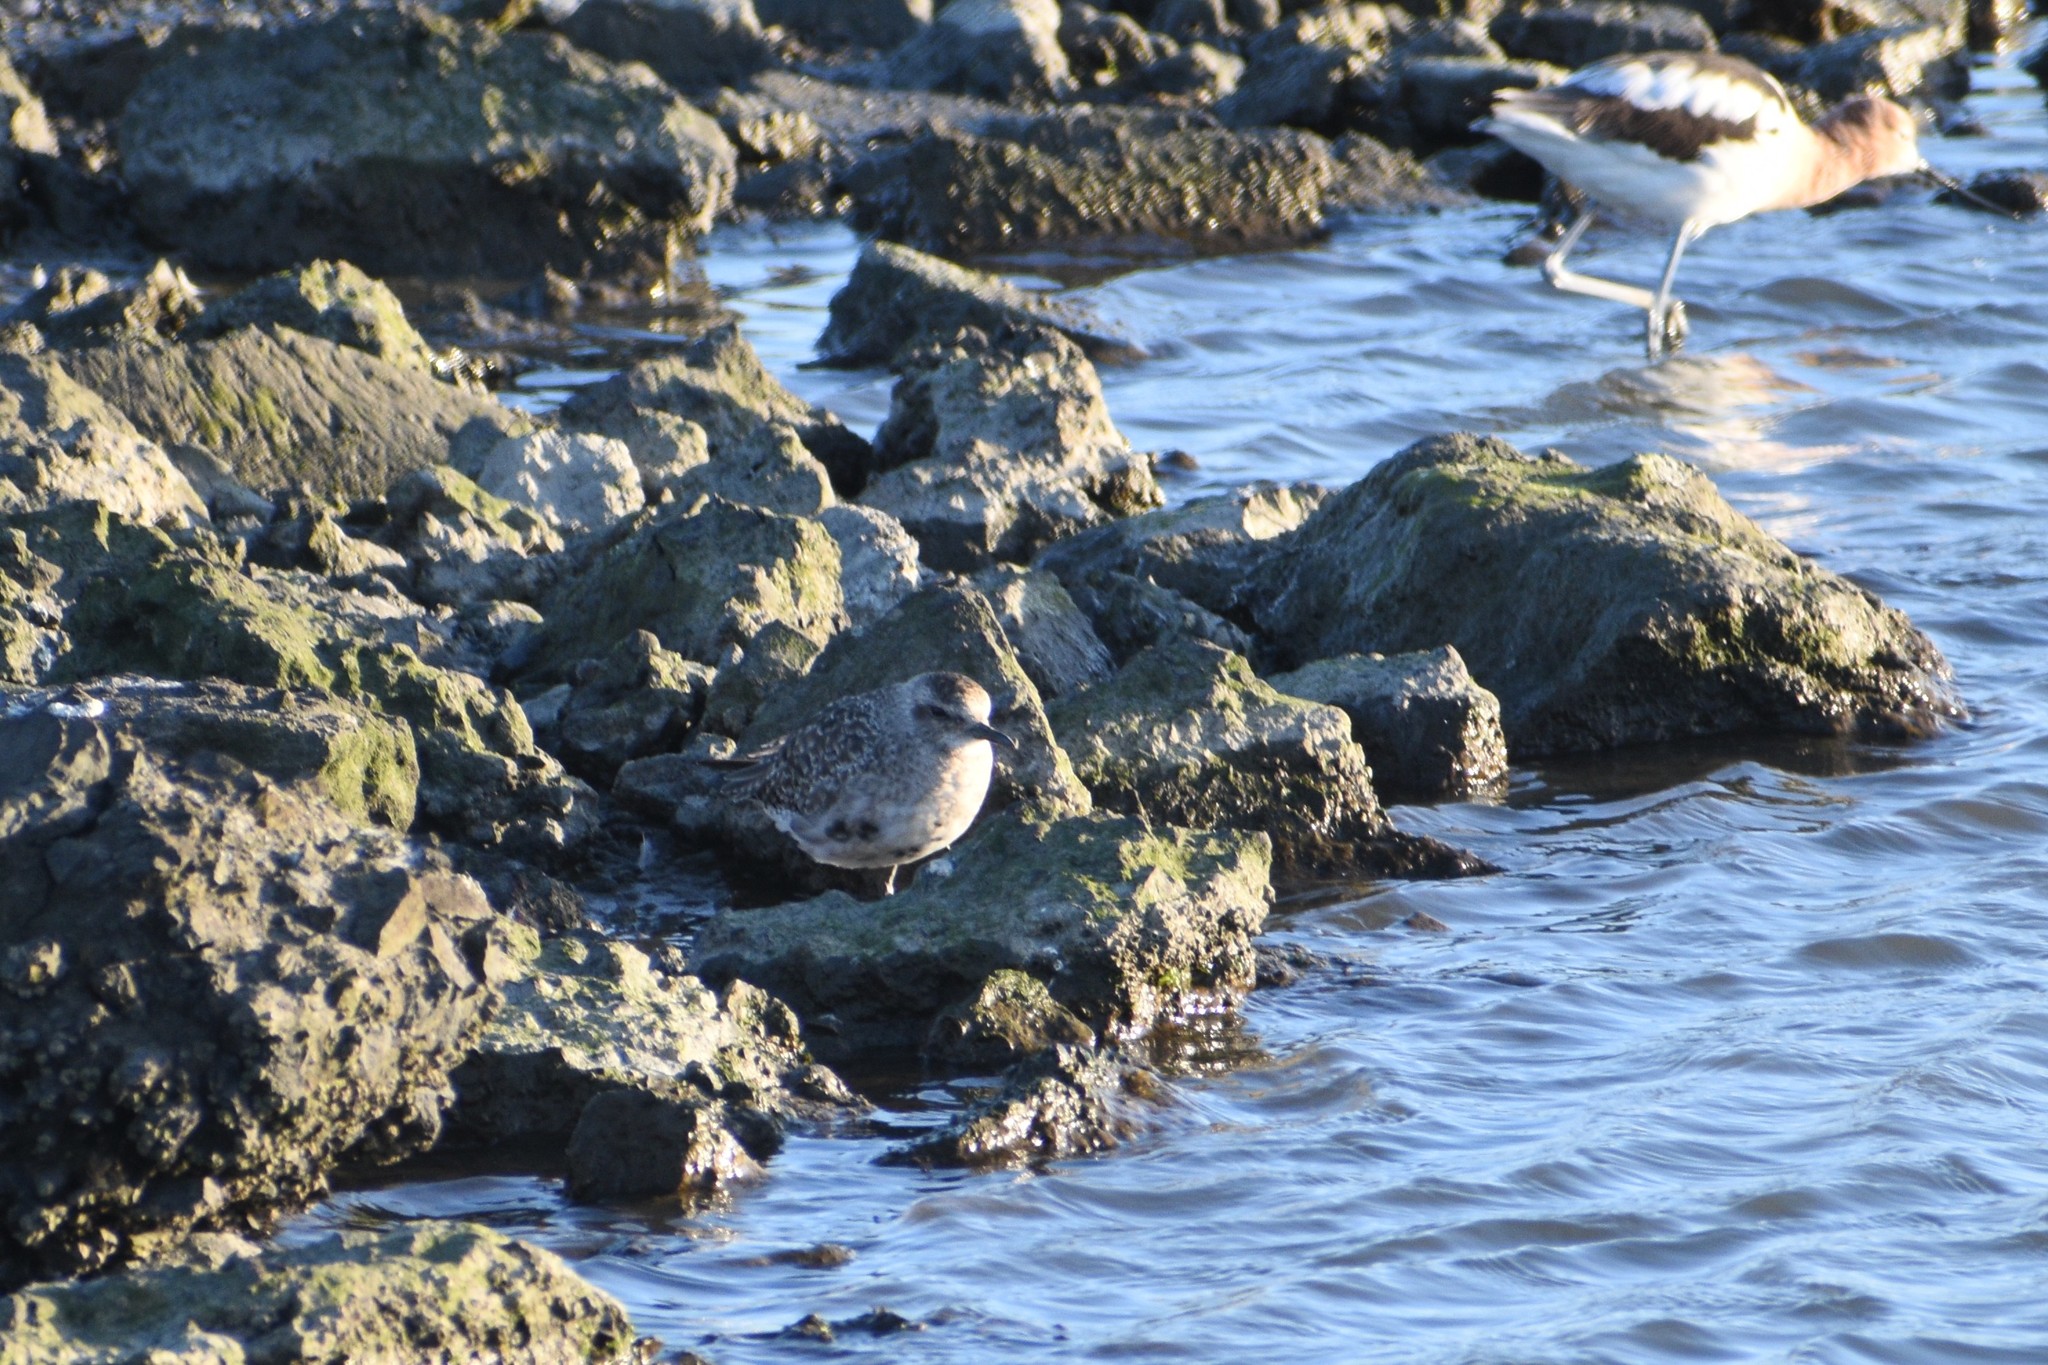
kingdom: Animalia
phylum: Chordata
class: Aves
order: Charadriiformes
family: Charadriidae
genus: Pluvialis
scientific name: Pluvialis squatarola
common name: Grey plover
